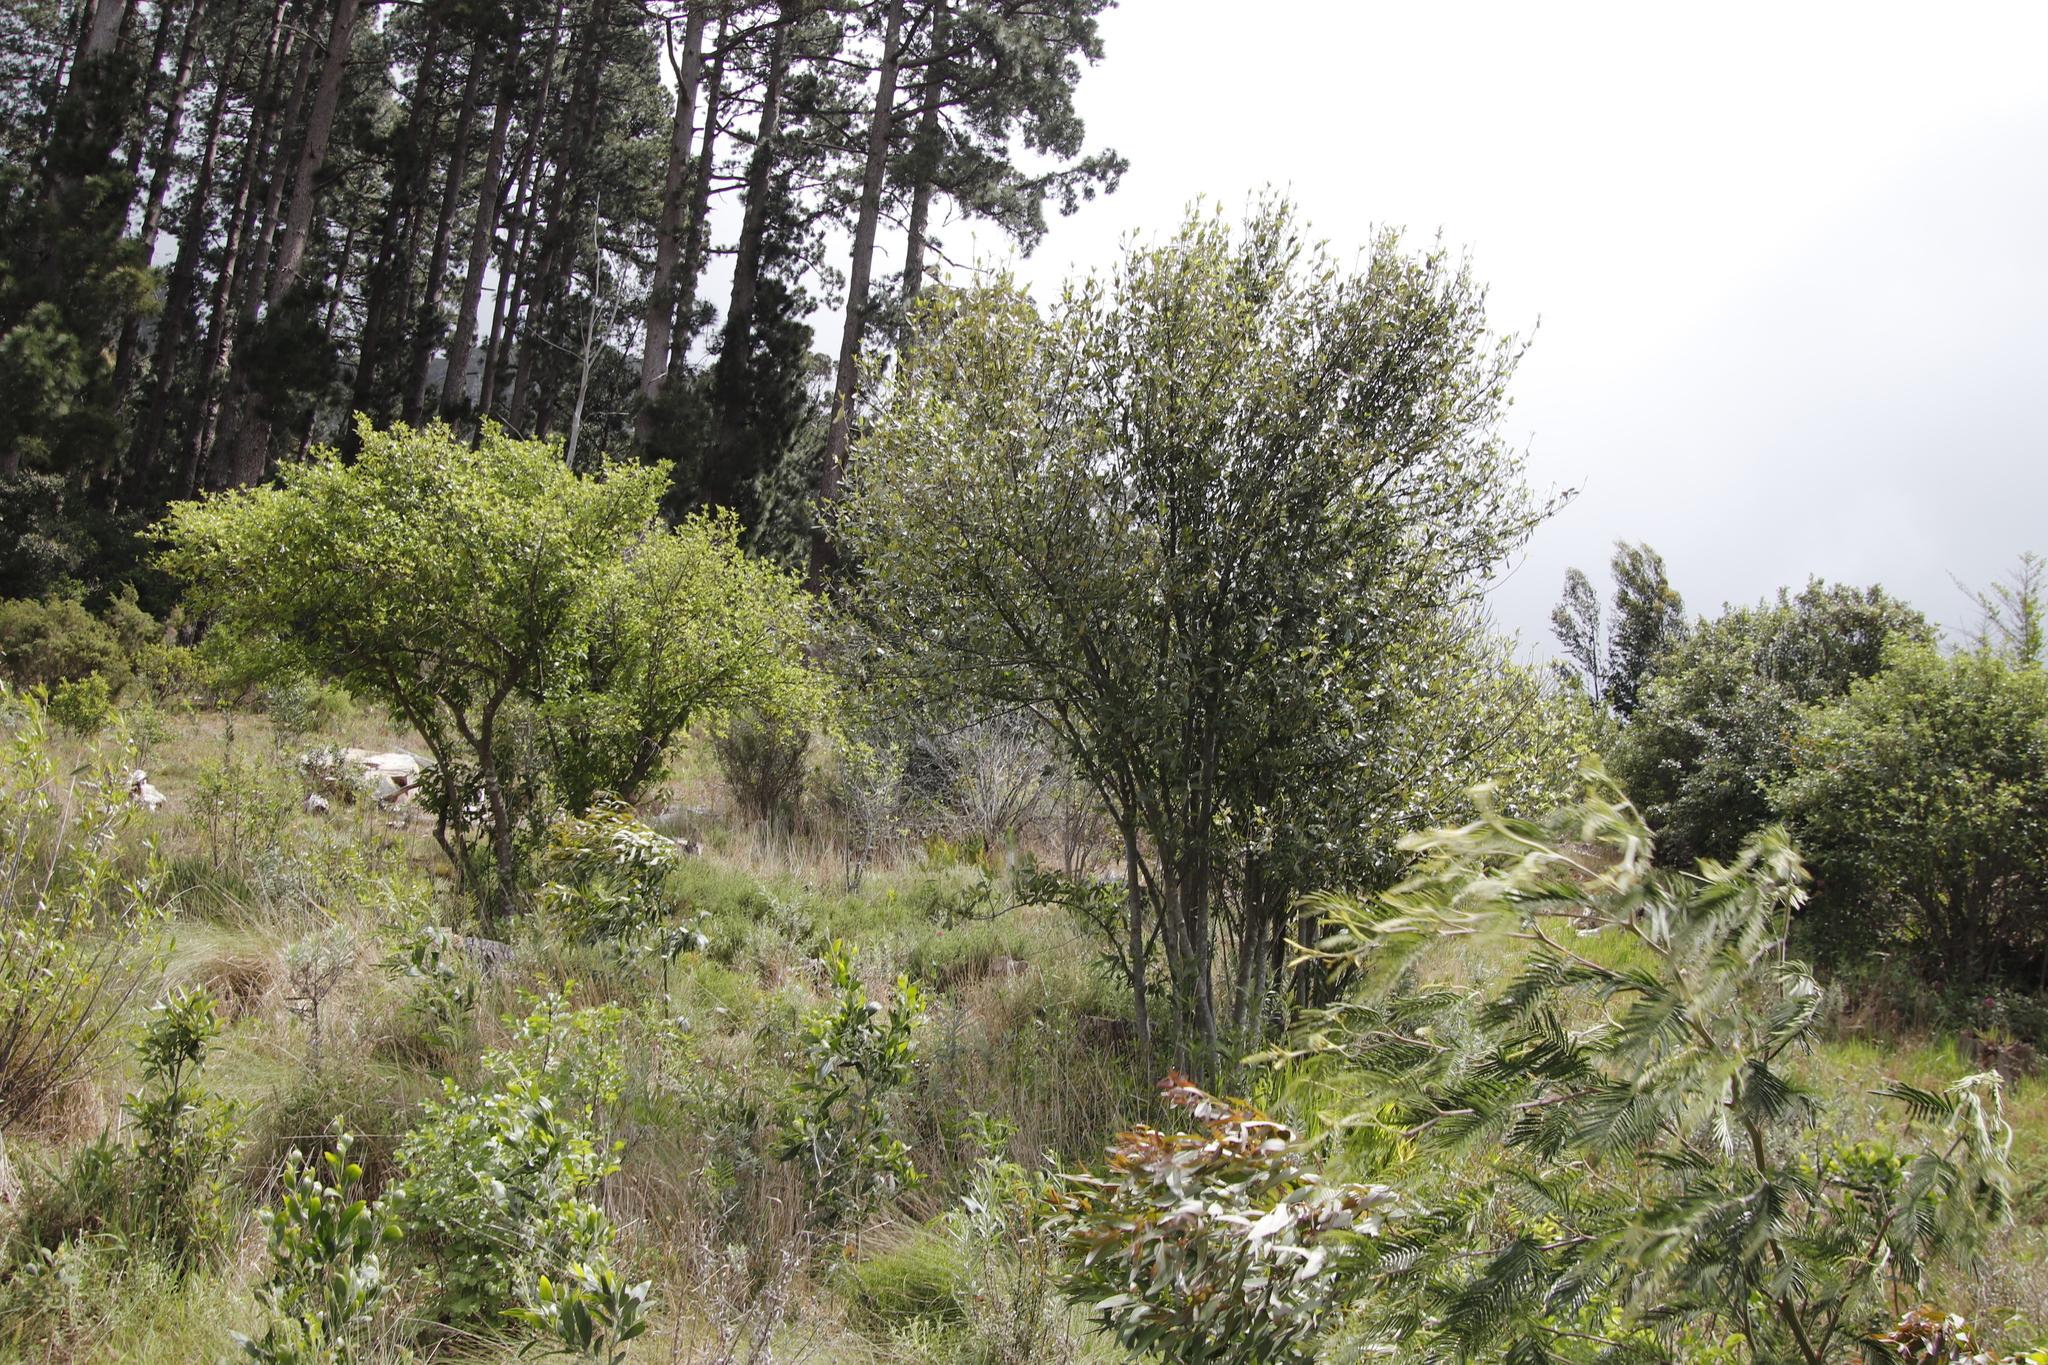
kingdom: Plantae
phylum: Tracheophyta
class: Magnoliopsida
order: Malpighiales
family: Achariaceae
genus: Kiggelaria
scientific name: Kiggelaria africana
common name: Wild peach
